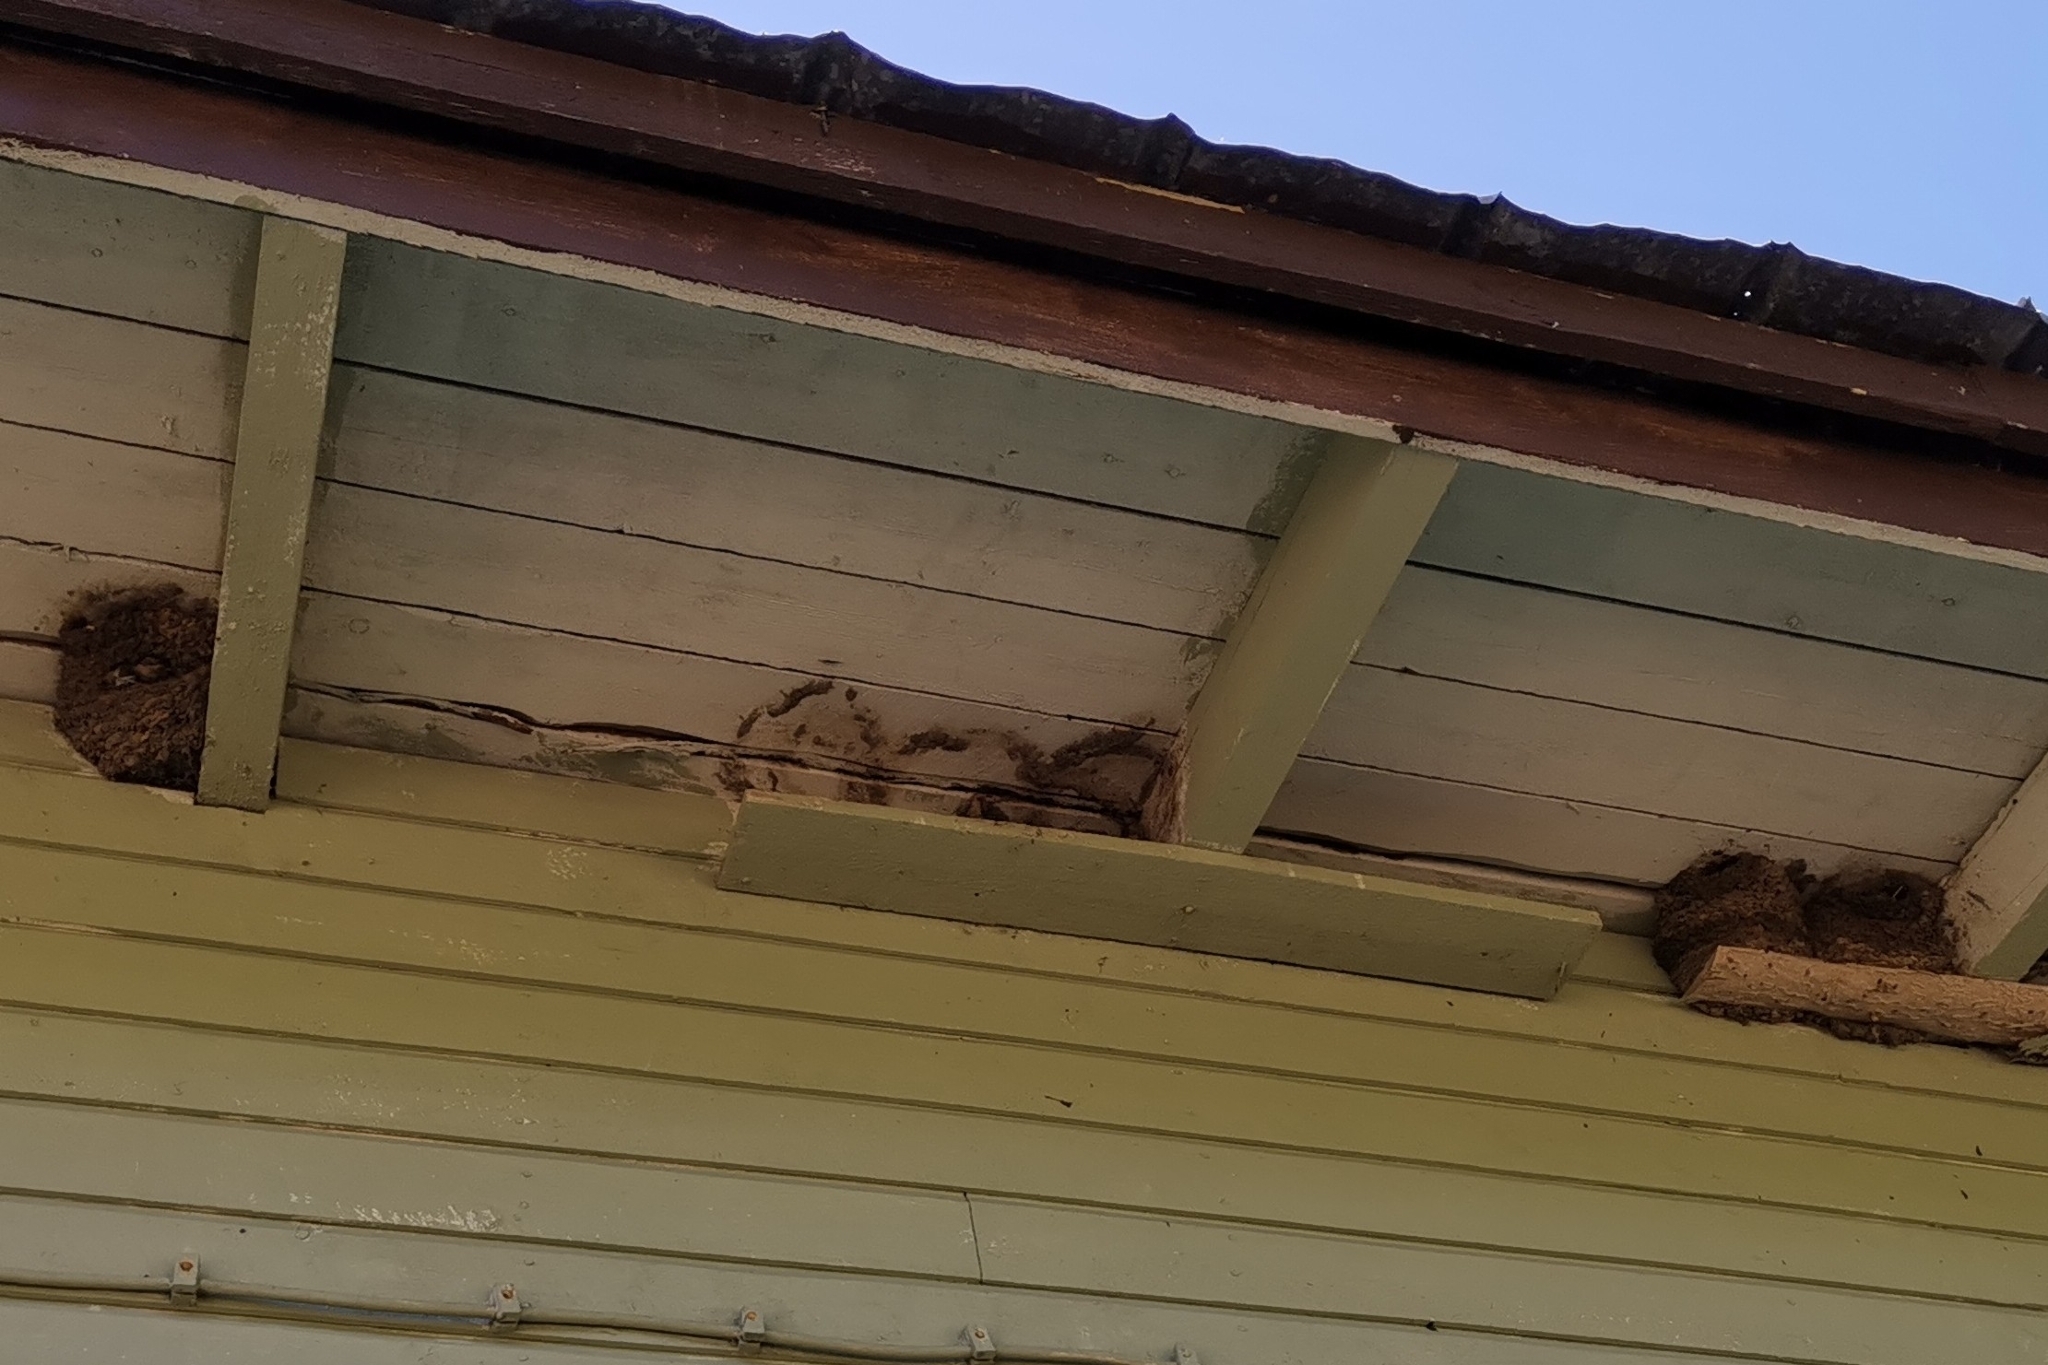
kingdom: Animalia
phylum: Chordata
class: Aves
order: Passeriformes
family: Hirundinidae
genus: Delichon
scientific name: Delichon urbicum
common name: Common house martin
